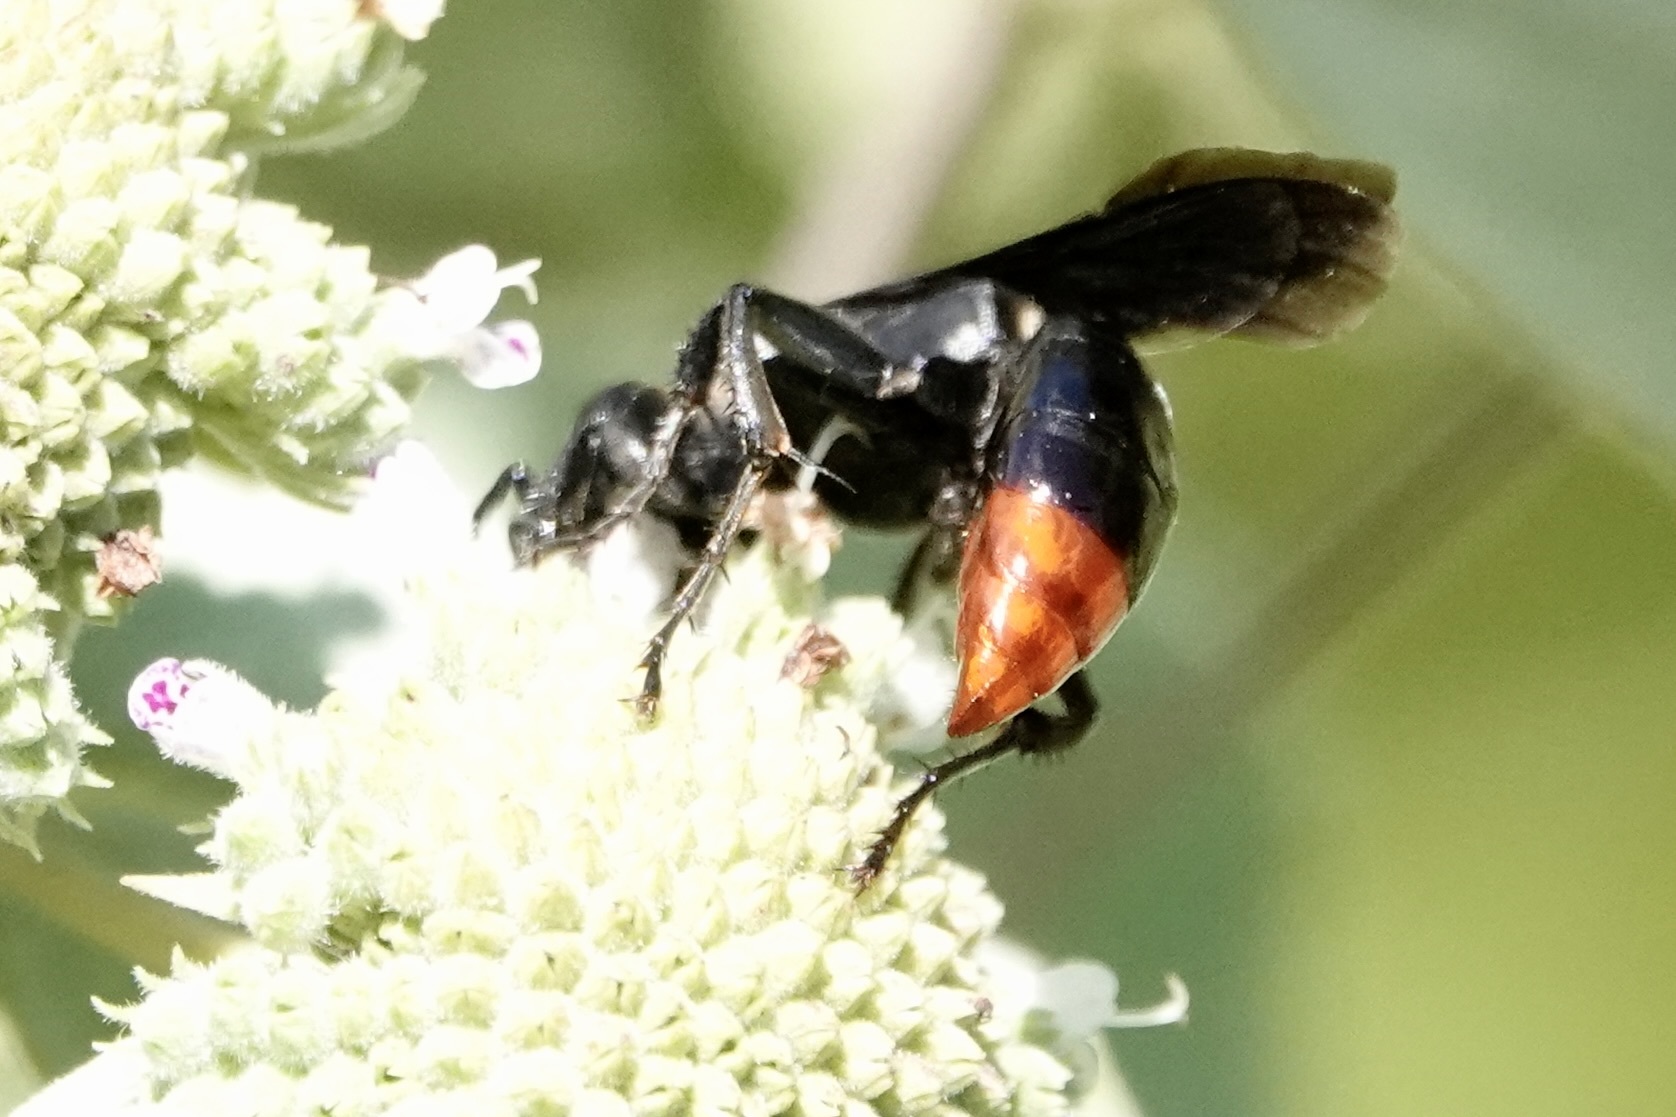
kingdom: Animalia
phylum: Arthropoda
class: Insecta
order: Hymenoptera
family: Crabronidae
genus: Larra
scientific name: Larra analis
